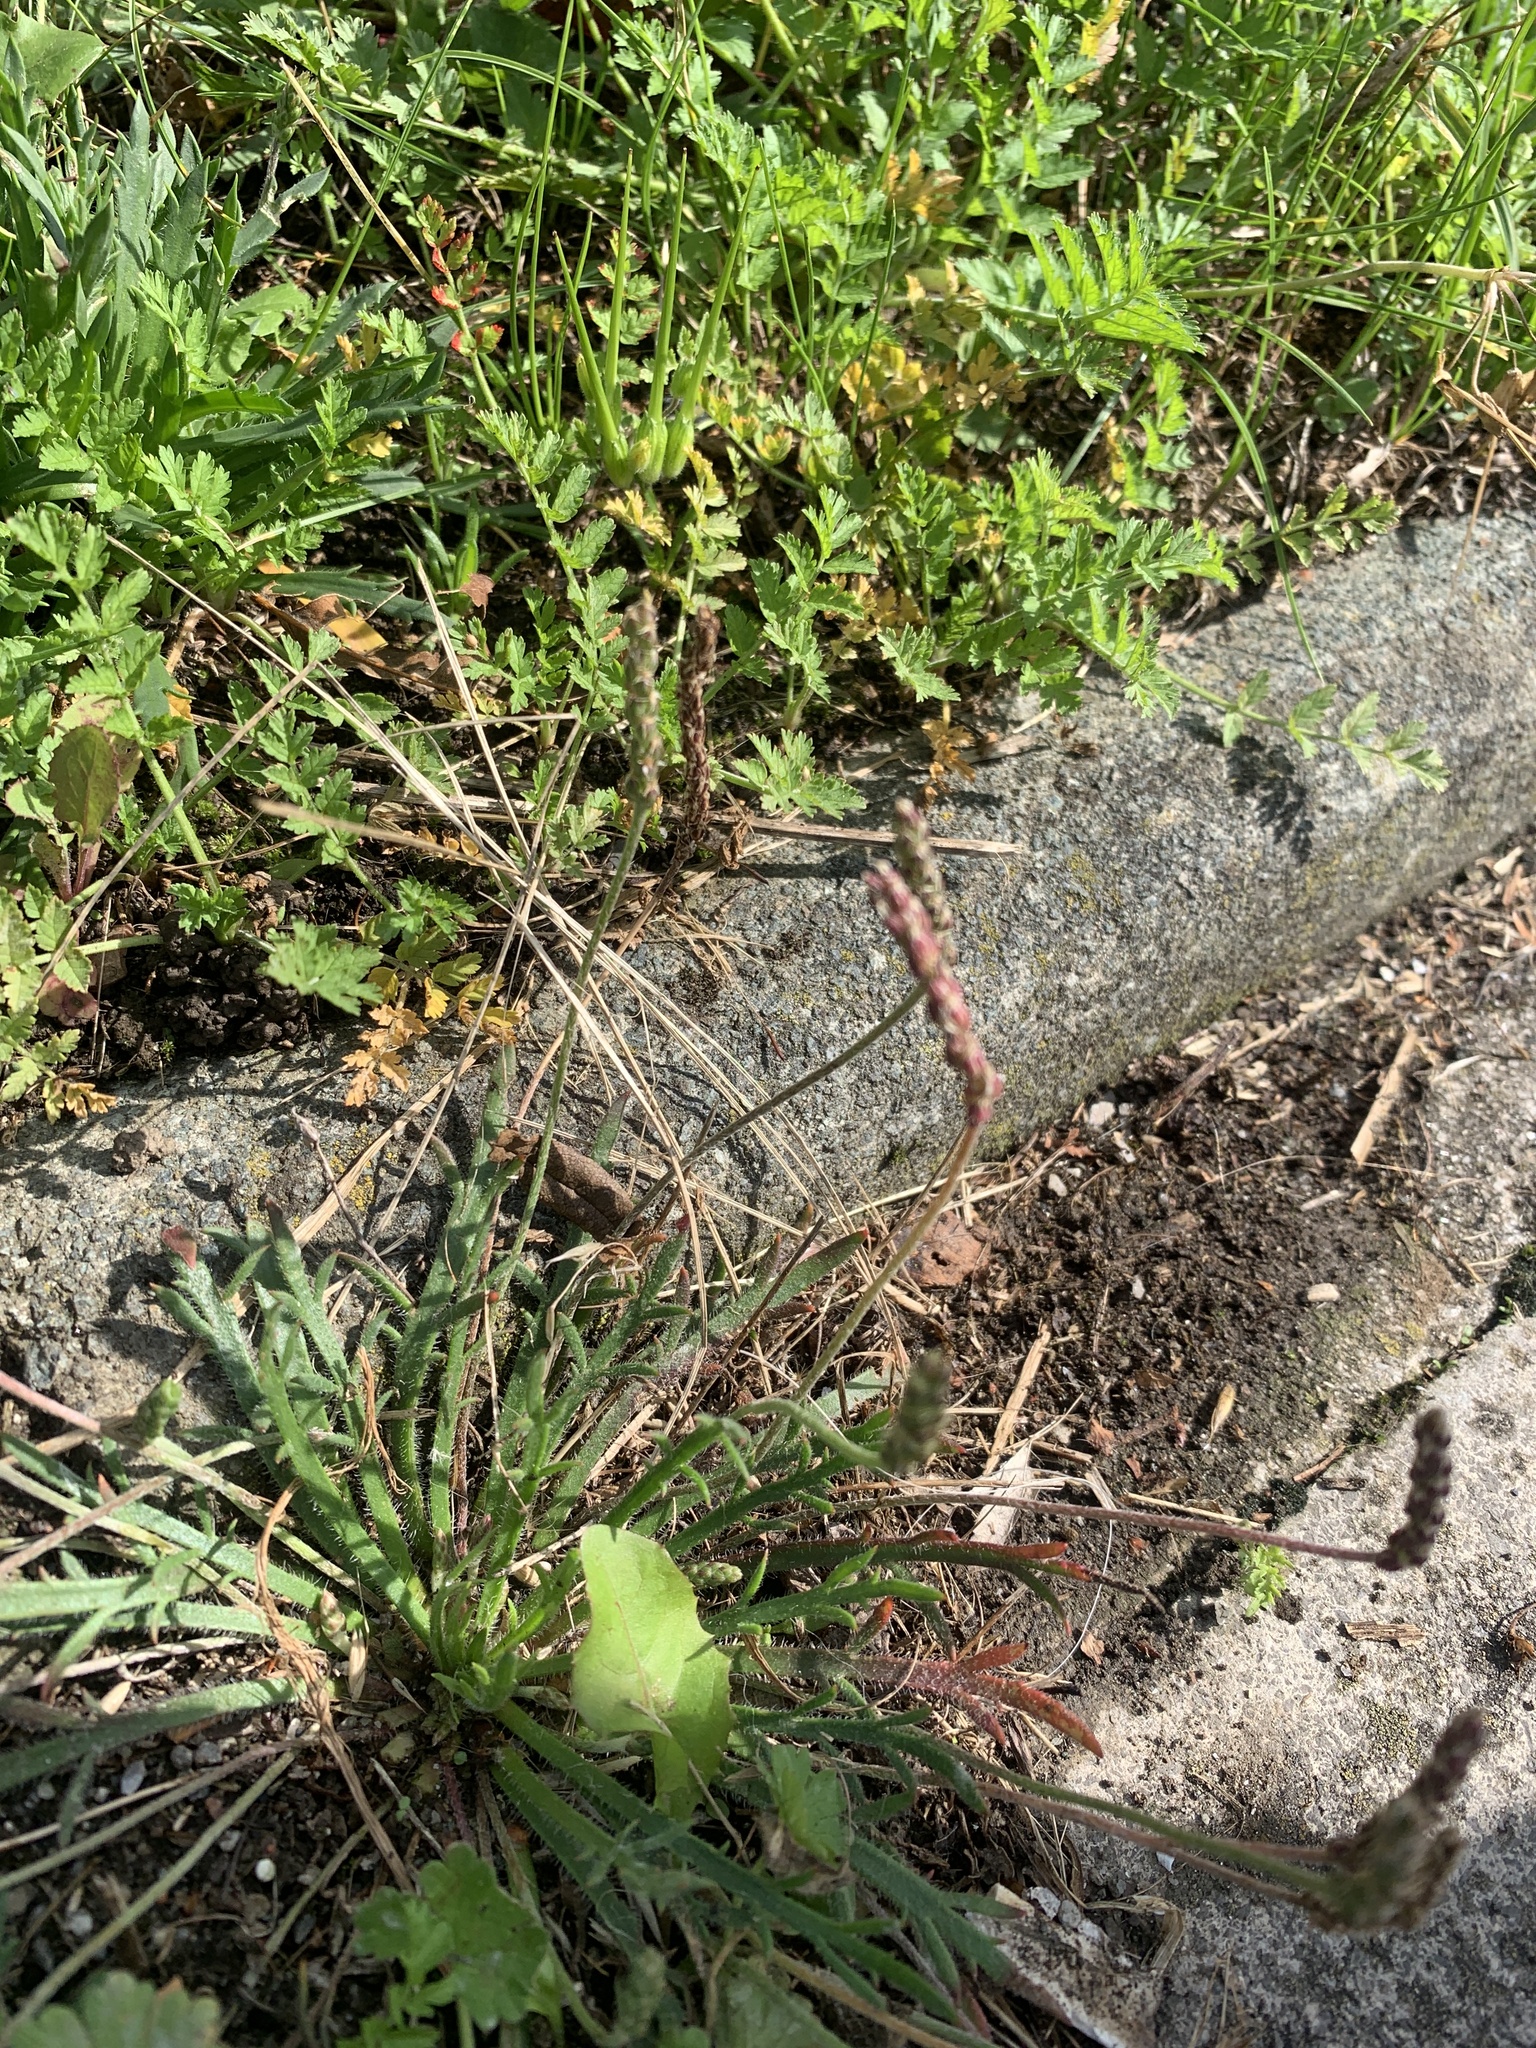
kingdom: Plantae
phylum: Tracheophyta
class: Magnoliopsida
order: Lamiales
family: Plantaginaceae
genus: Plantago
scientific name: Plantago coronopus
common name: Buck's-horn plantain
